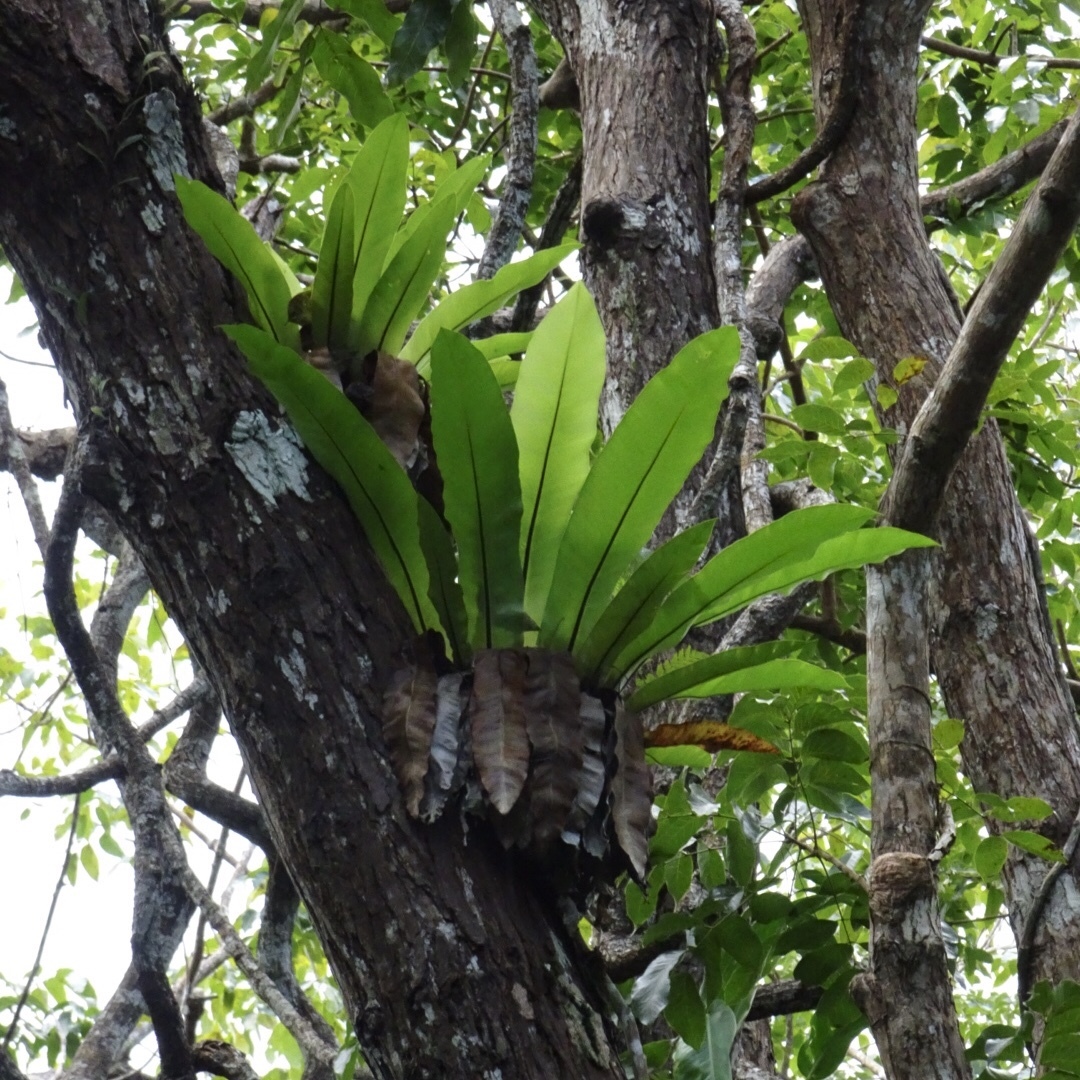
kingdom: Plantae
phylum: Tracheophyta
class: Polypodiopsida
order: Polypodiales
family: Aspleniaceae
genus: Asplenium
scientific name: Asplenium nidus
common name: Bird's-nest fern
